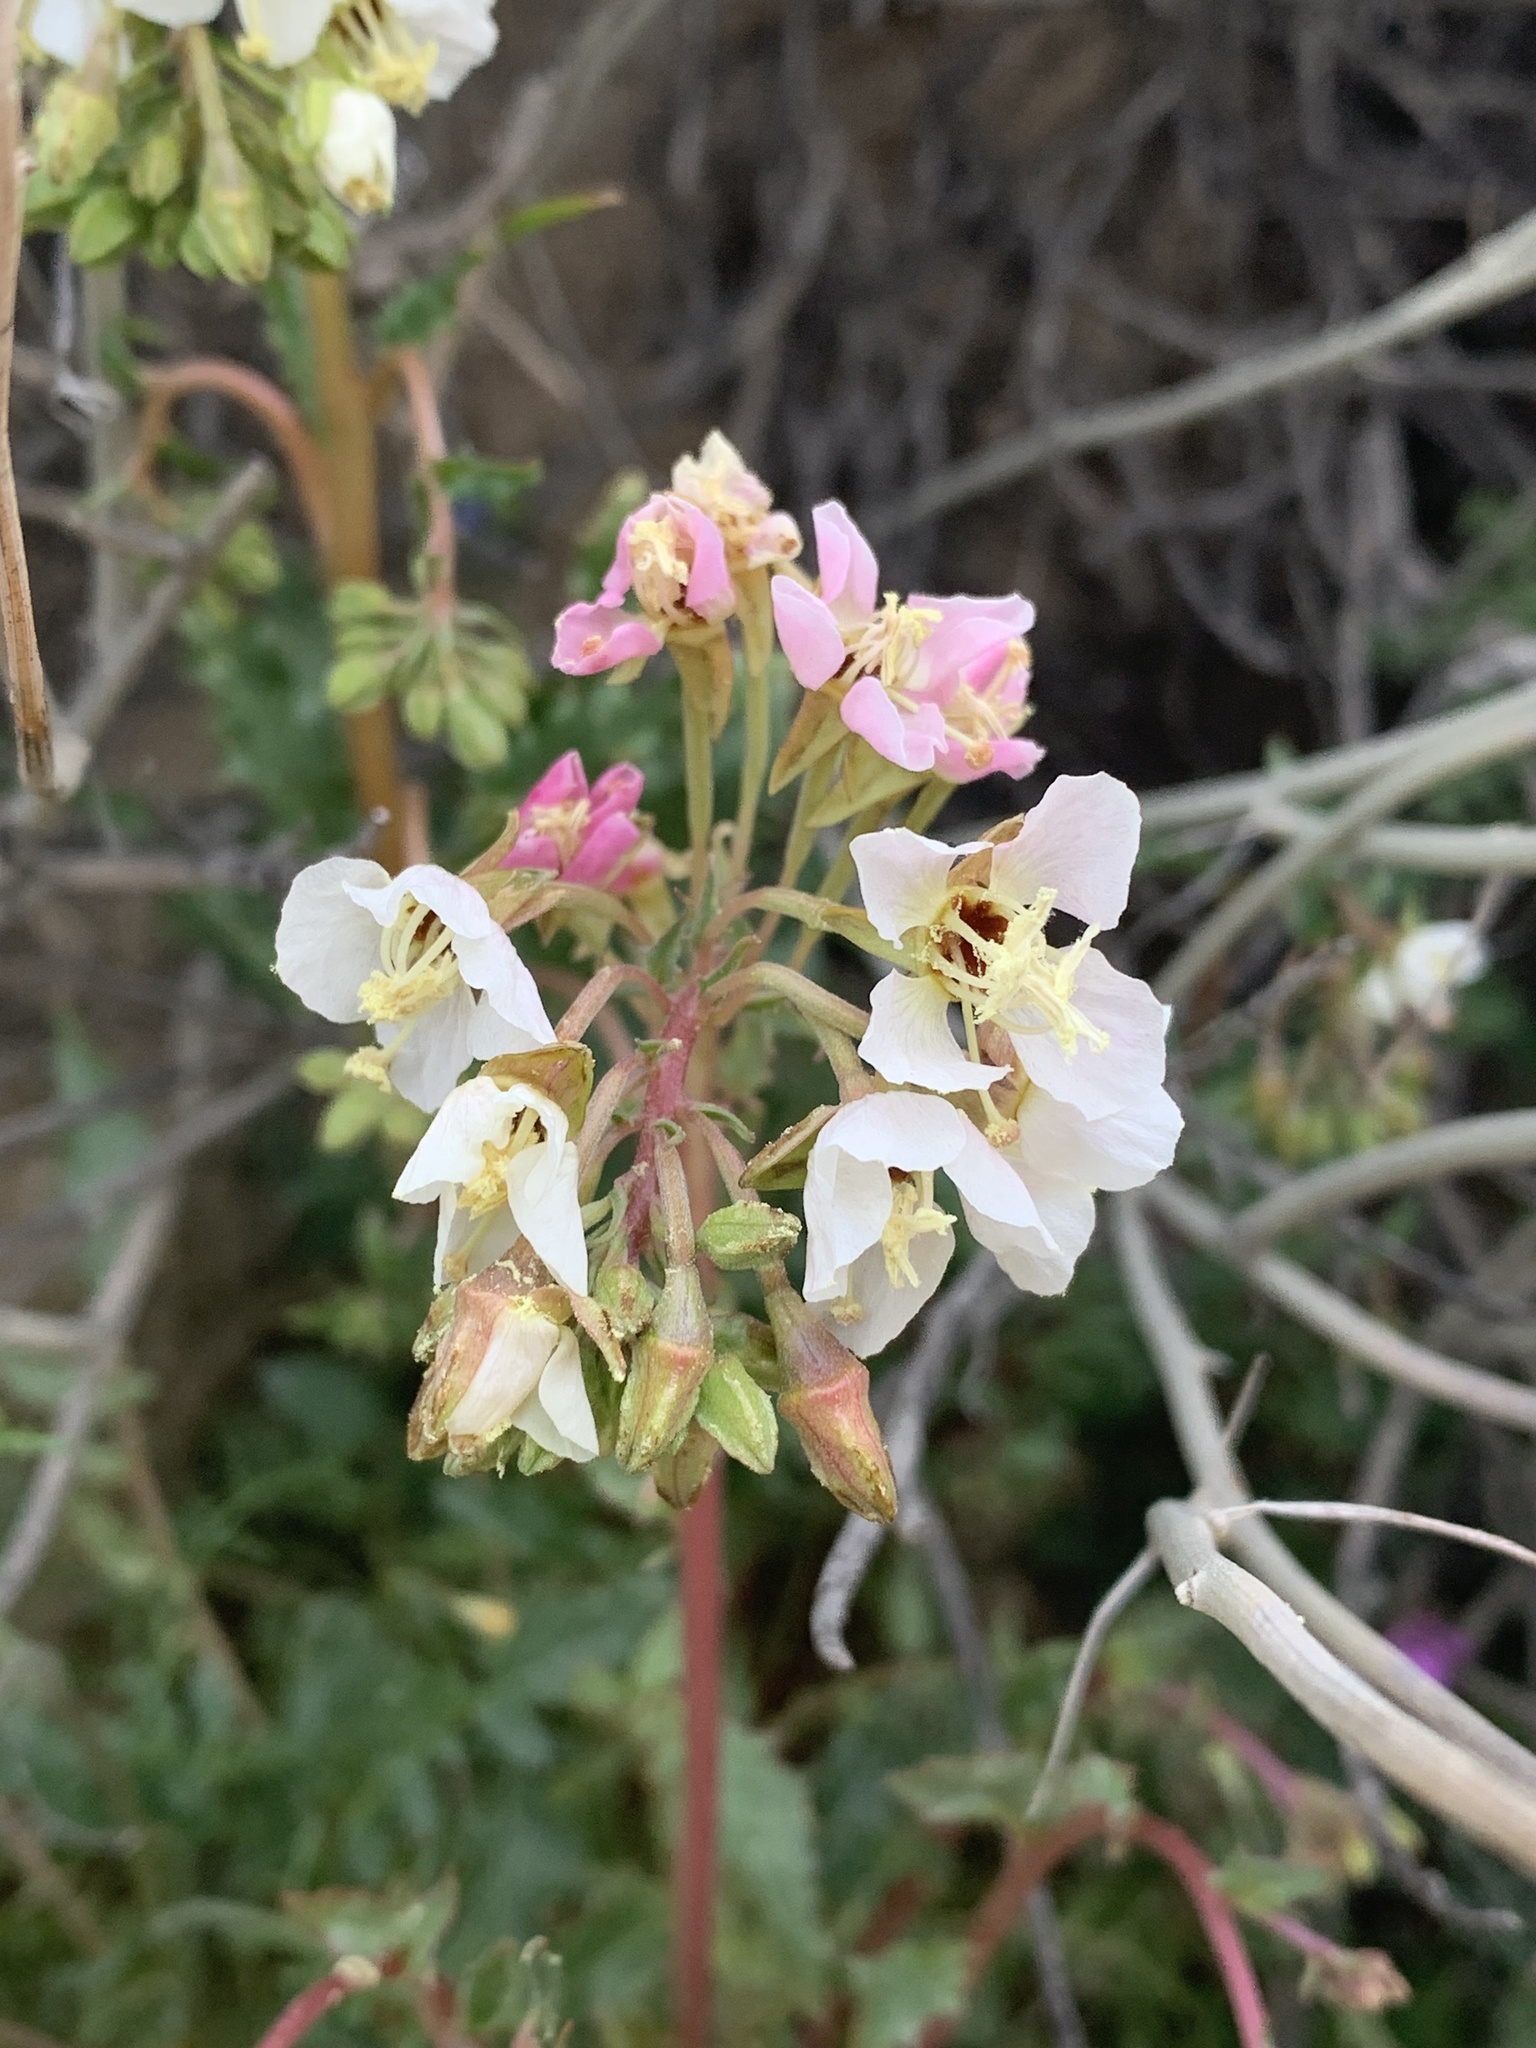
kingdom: Plantae
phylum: Tracheophyta
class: Magnoliopsida
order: Myrtales
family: Onagraceae
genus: Chylismia
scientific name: Chylismia claviformis
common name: Browneyes
